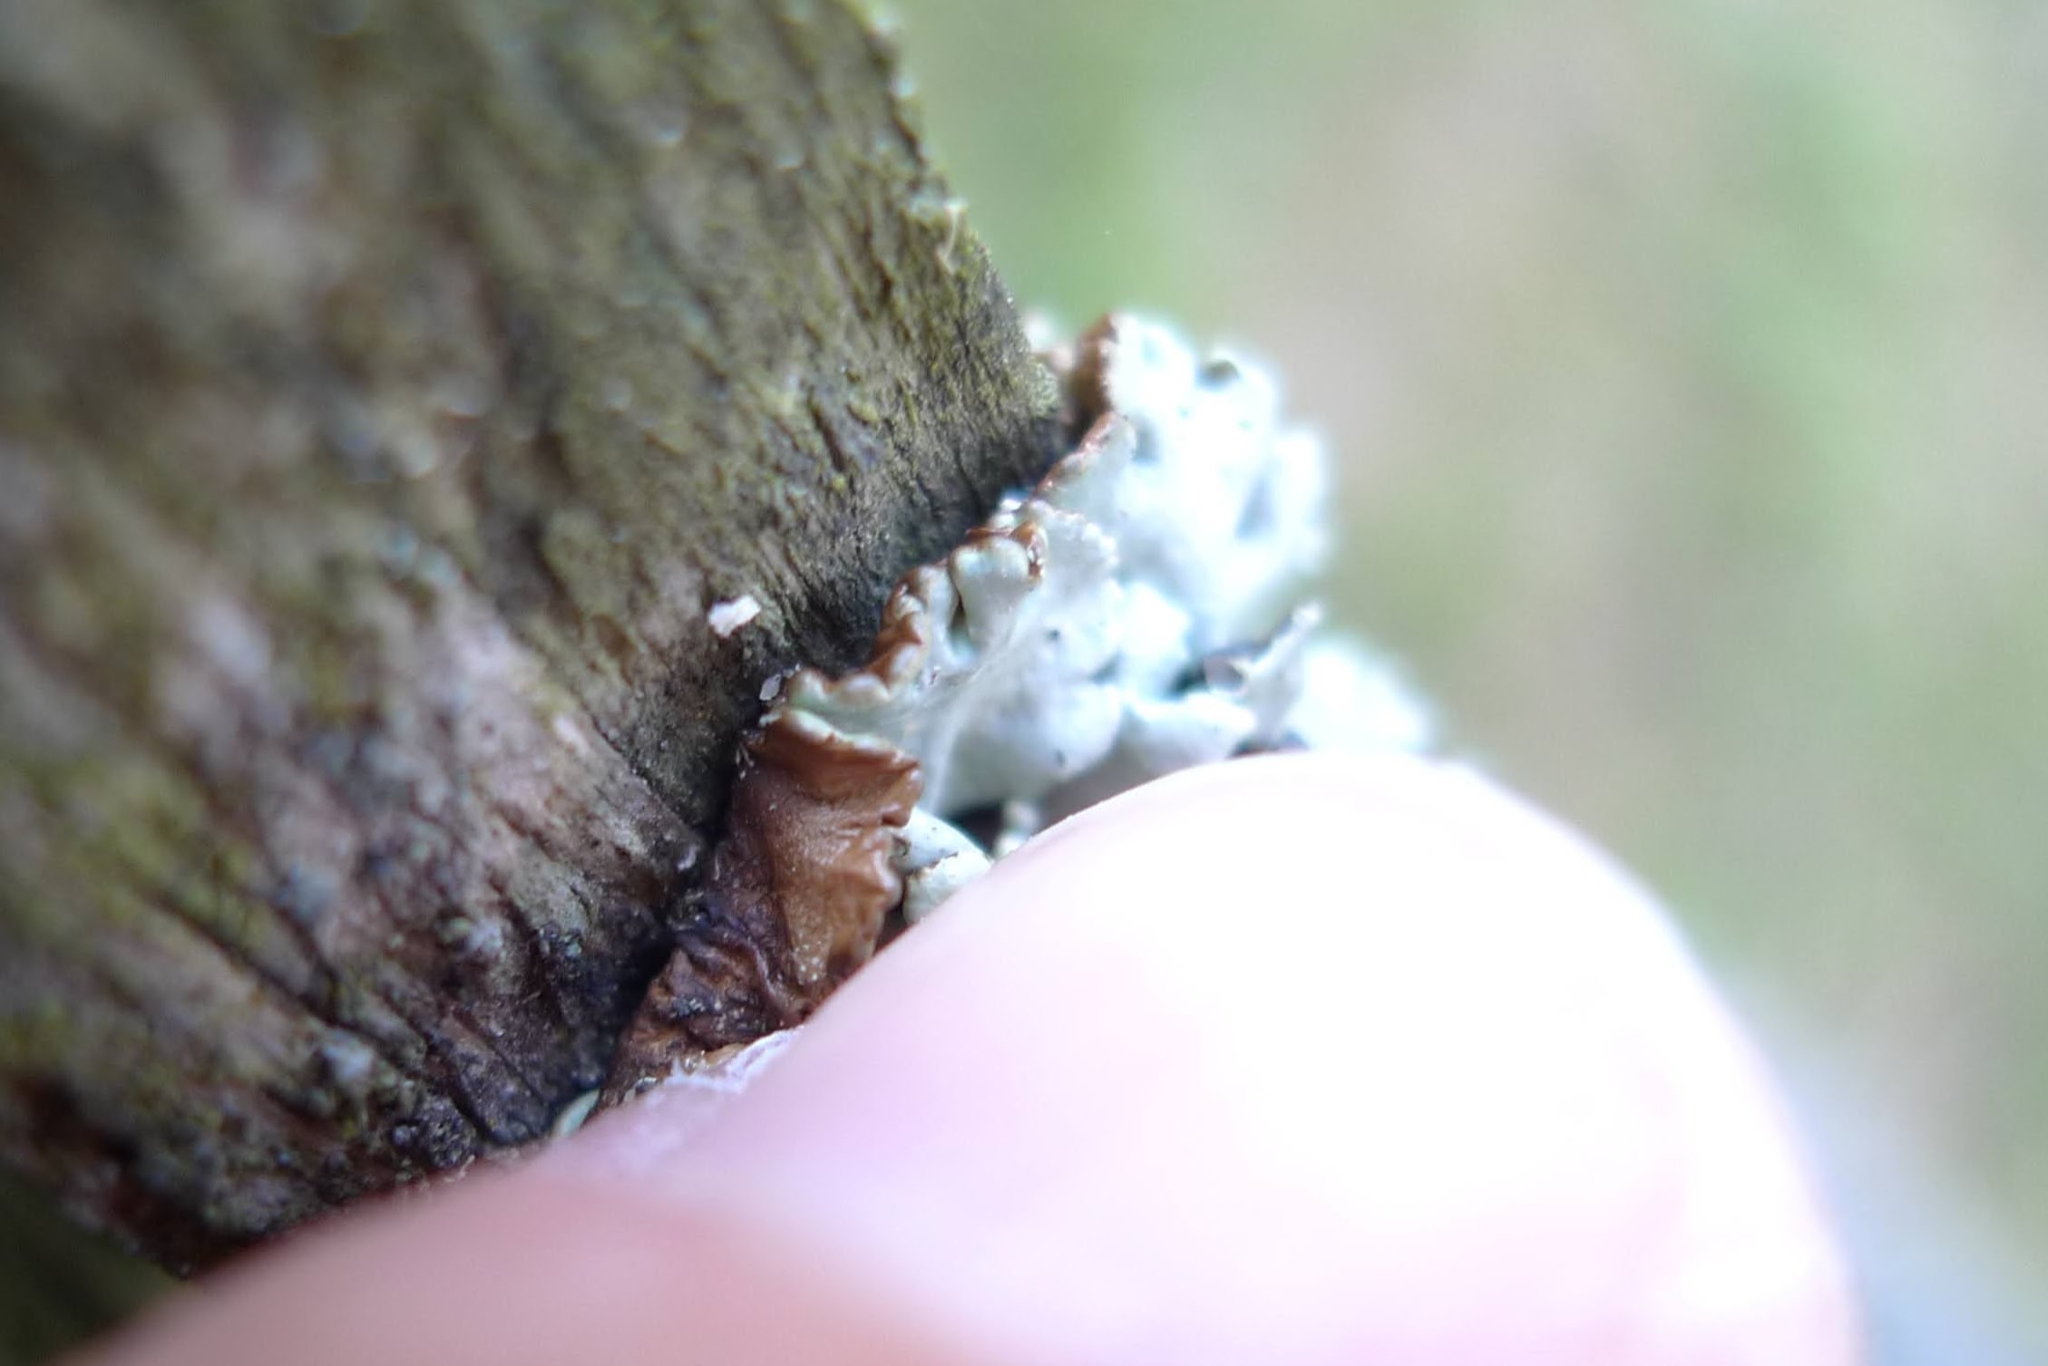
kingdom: Fungi
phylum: Ascomycota
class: Lecanoromycetes
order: Lecanorales
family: Parmeliaceae
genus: Hypogymnia
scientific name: Hypogymnia physodes
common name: Dark crottle
